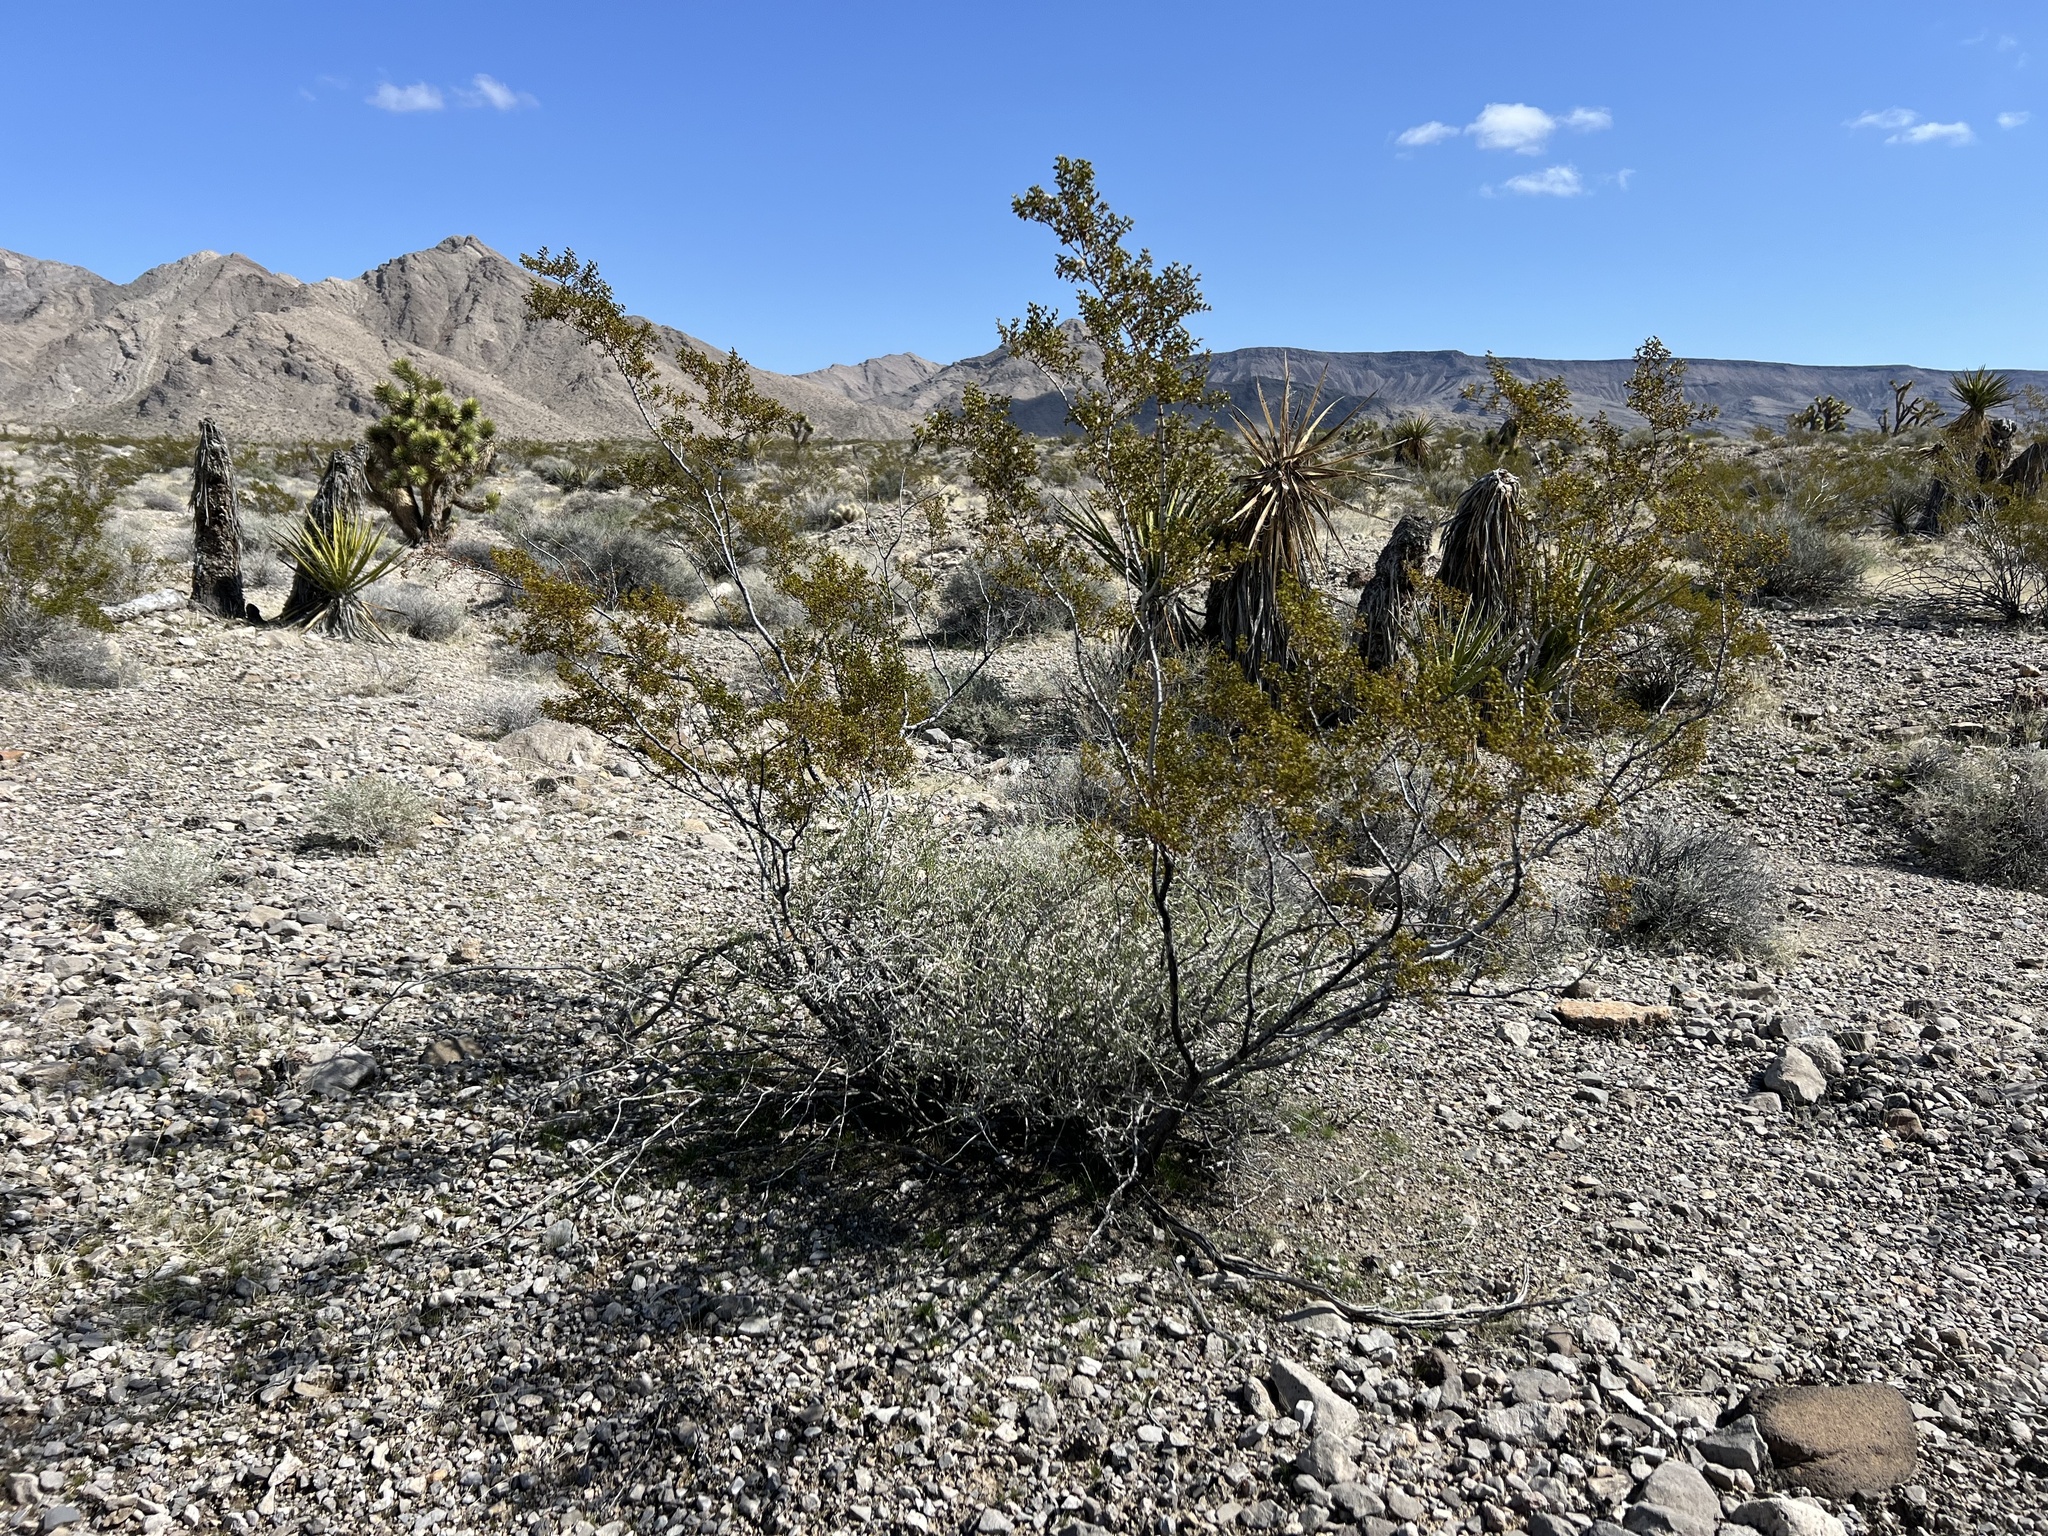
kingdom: Plantae
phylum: Tracheophyta
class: Magnoliopsida
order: Zygophyllales
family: Zygophyllaceae
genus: Larrea
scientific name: Larrea tridentata
